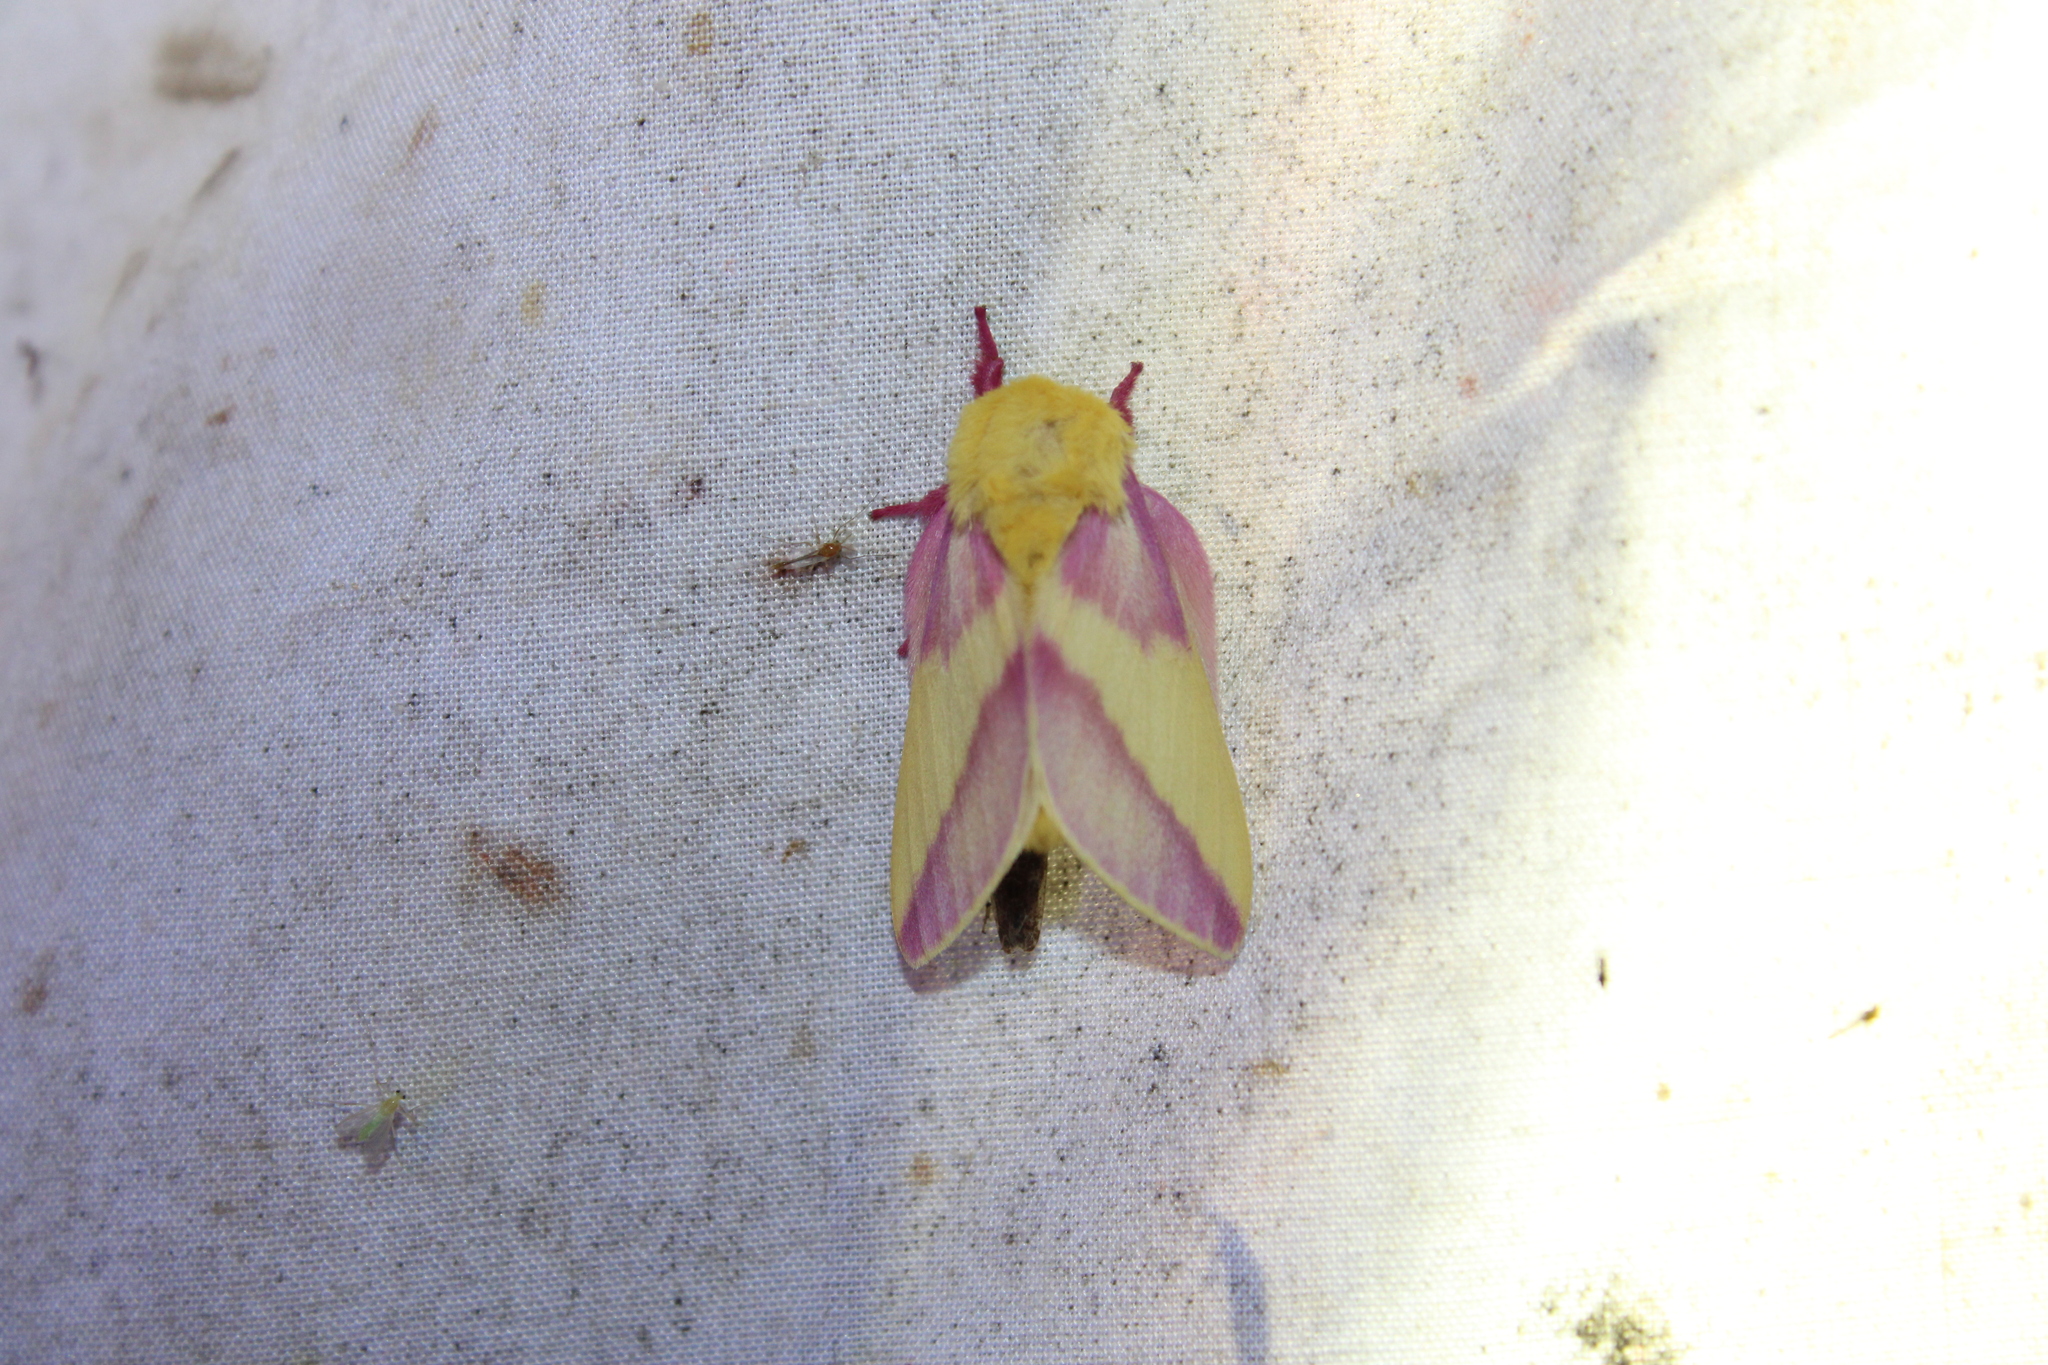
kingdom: Animalia
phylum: Arthropoda
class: Insecta
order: Lepidoptera
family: Saturniidae
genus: Dryocampa
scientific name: Dryocampa rubicunda
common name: Rosy maple moth
